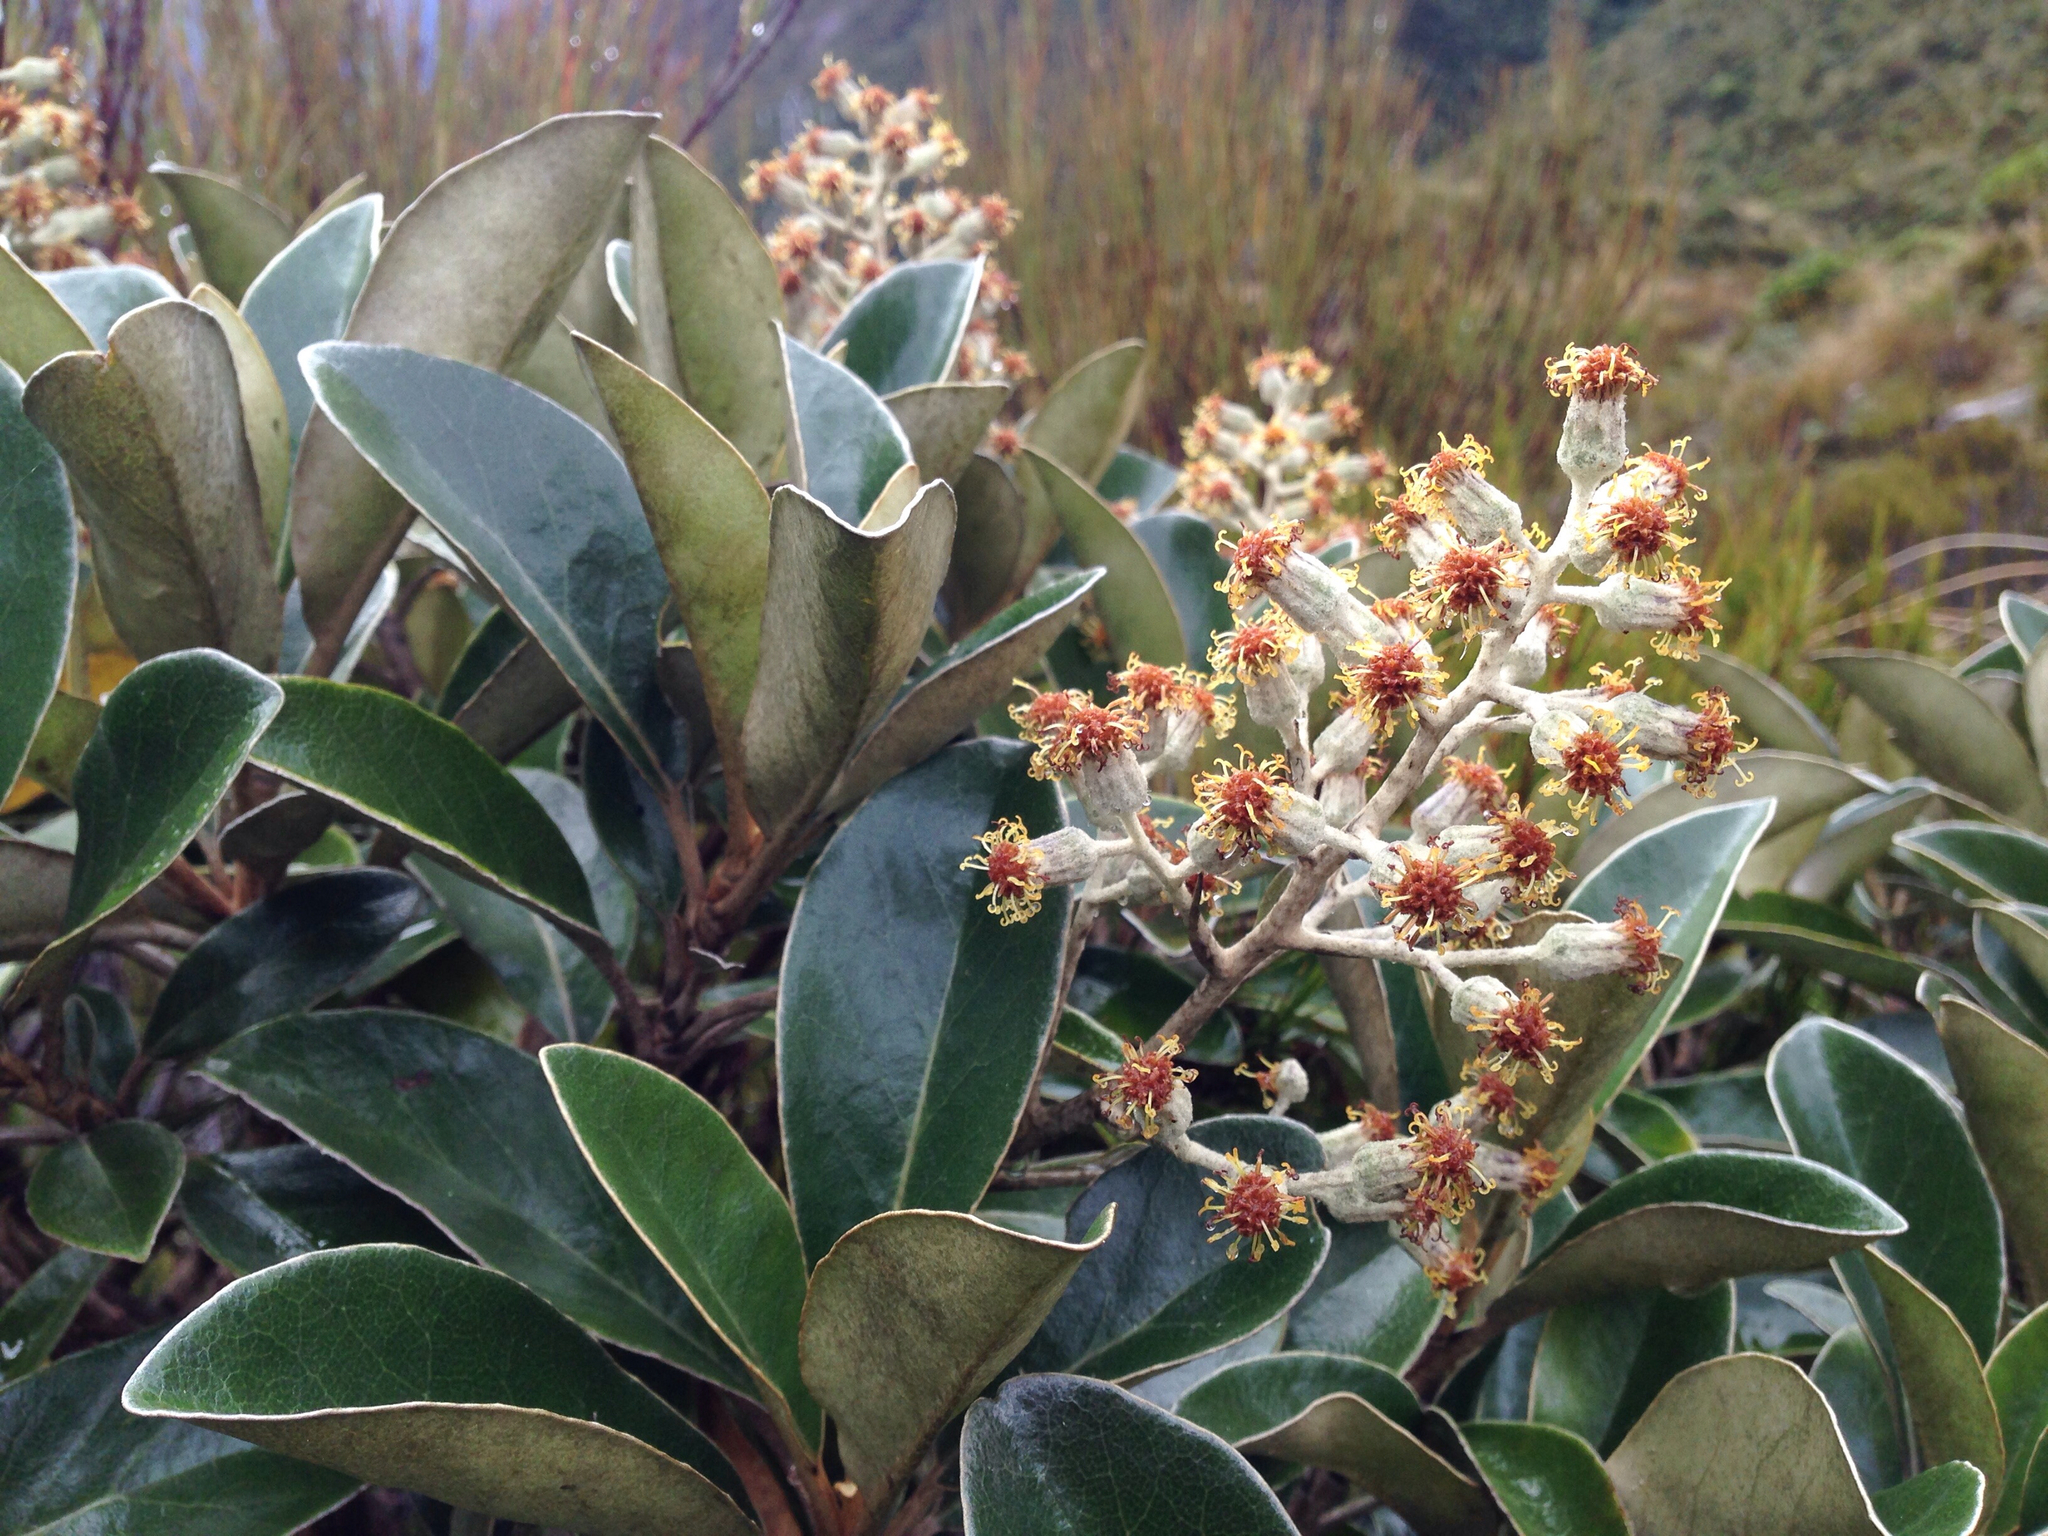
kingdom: Plantae
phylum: Tracheophyta
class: Magnoliopsida
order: Asterales
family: Asteraceae
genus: Brachyglottis
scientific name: Brachyglottis elaeagnifolia
